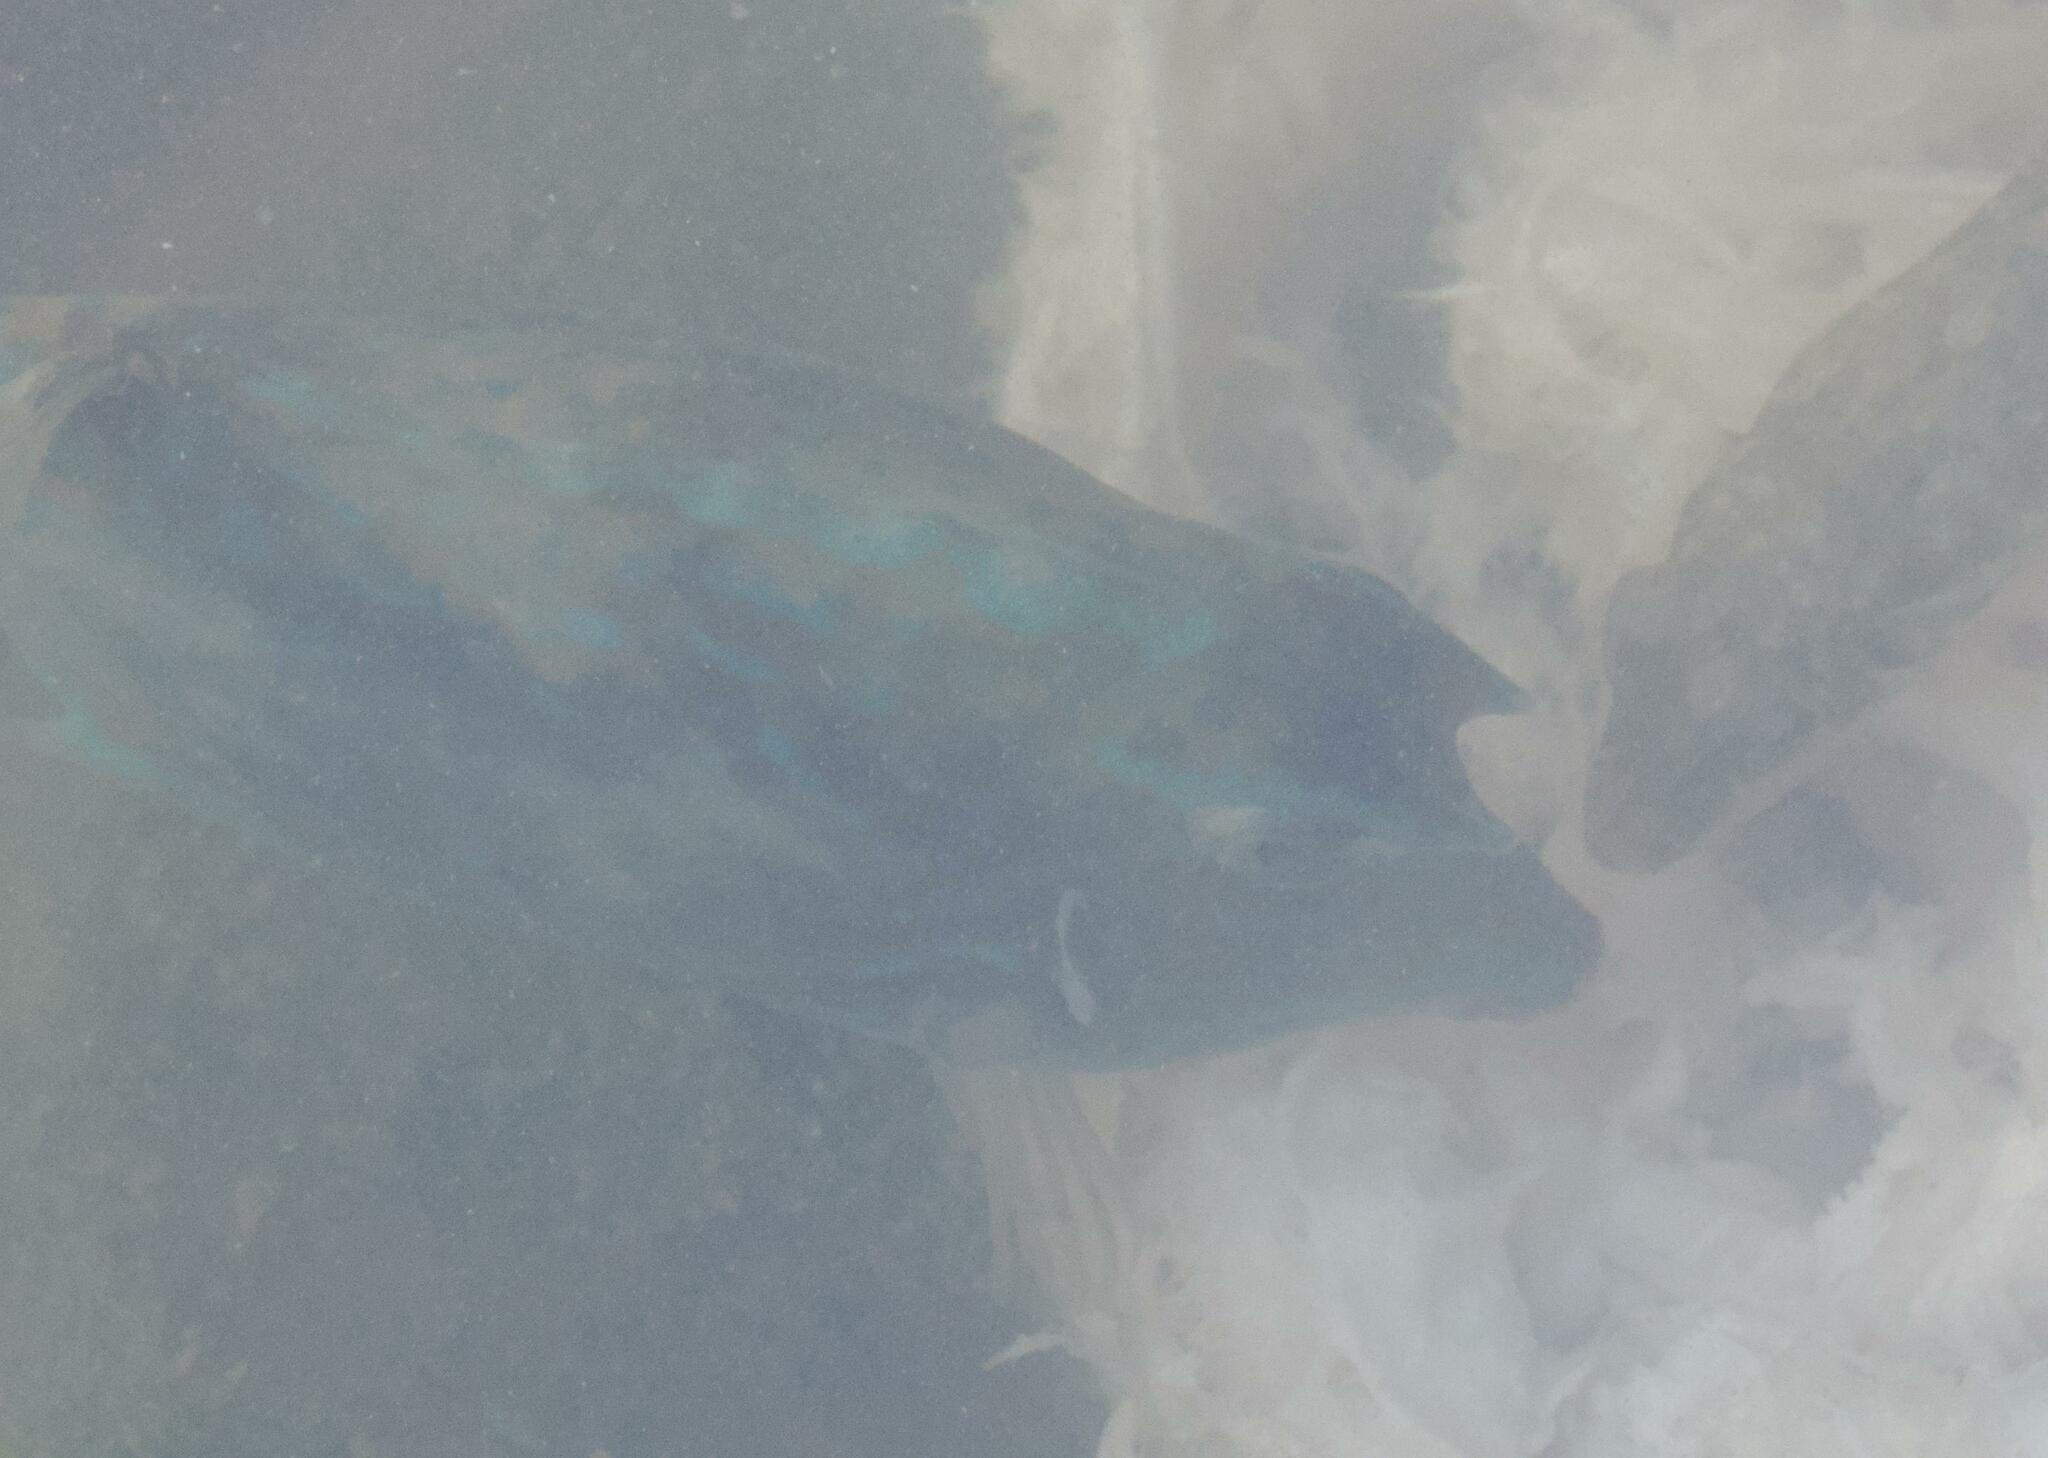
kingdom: Animalia
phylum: Chordata
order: Tetraodontiformes
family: Ostraciidae
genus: Acanthostracion
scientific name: Acanthostracion quadricornis
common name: Scrawled cowfish
